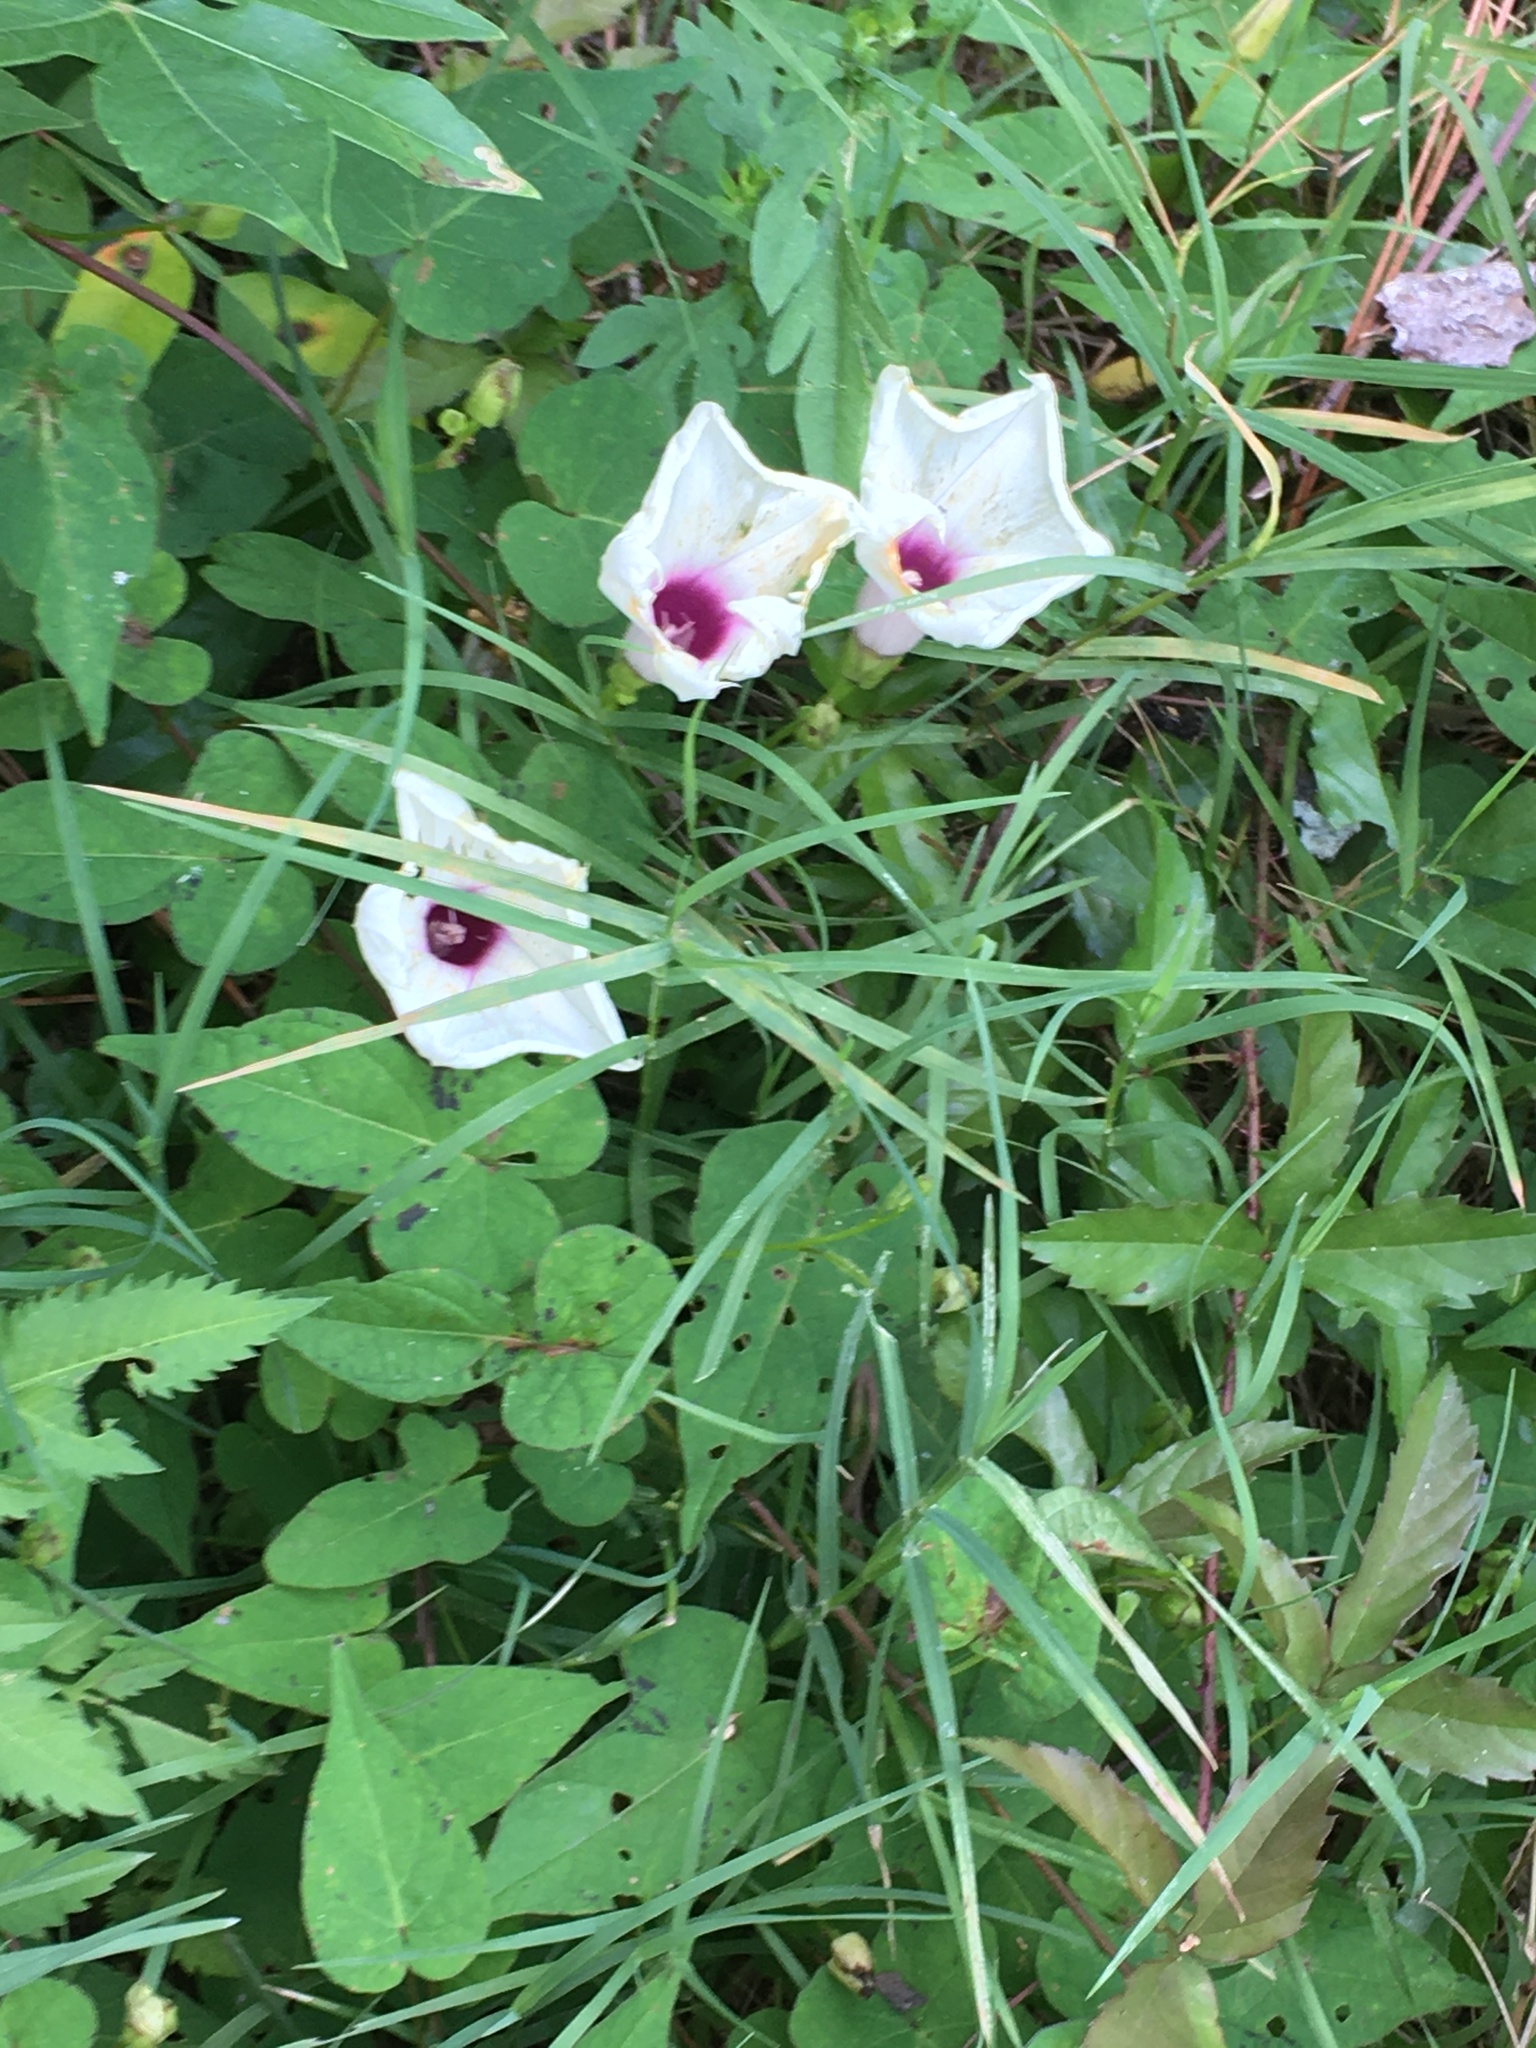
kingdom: Plantae
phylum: Tracheophyta
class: Magnoliopsida
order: Solanales
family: Convolvulaceae
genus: Ipomoea
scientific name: Ipomoea pandurata
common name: Man-of-the-earth
